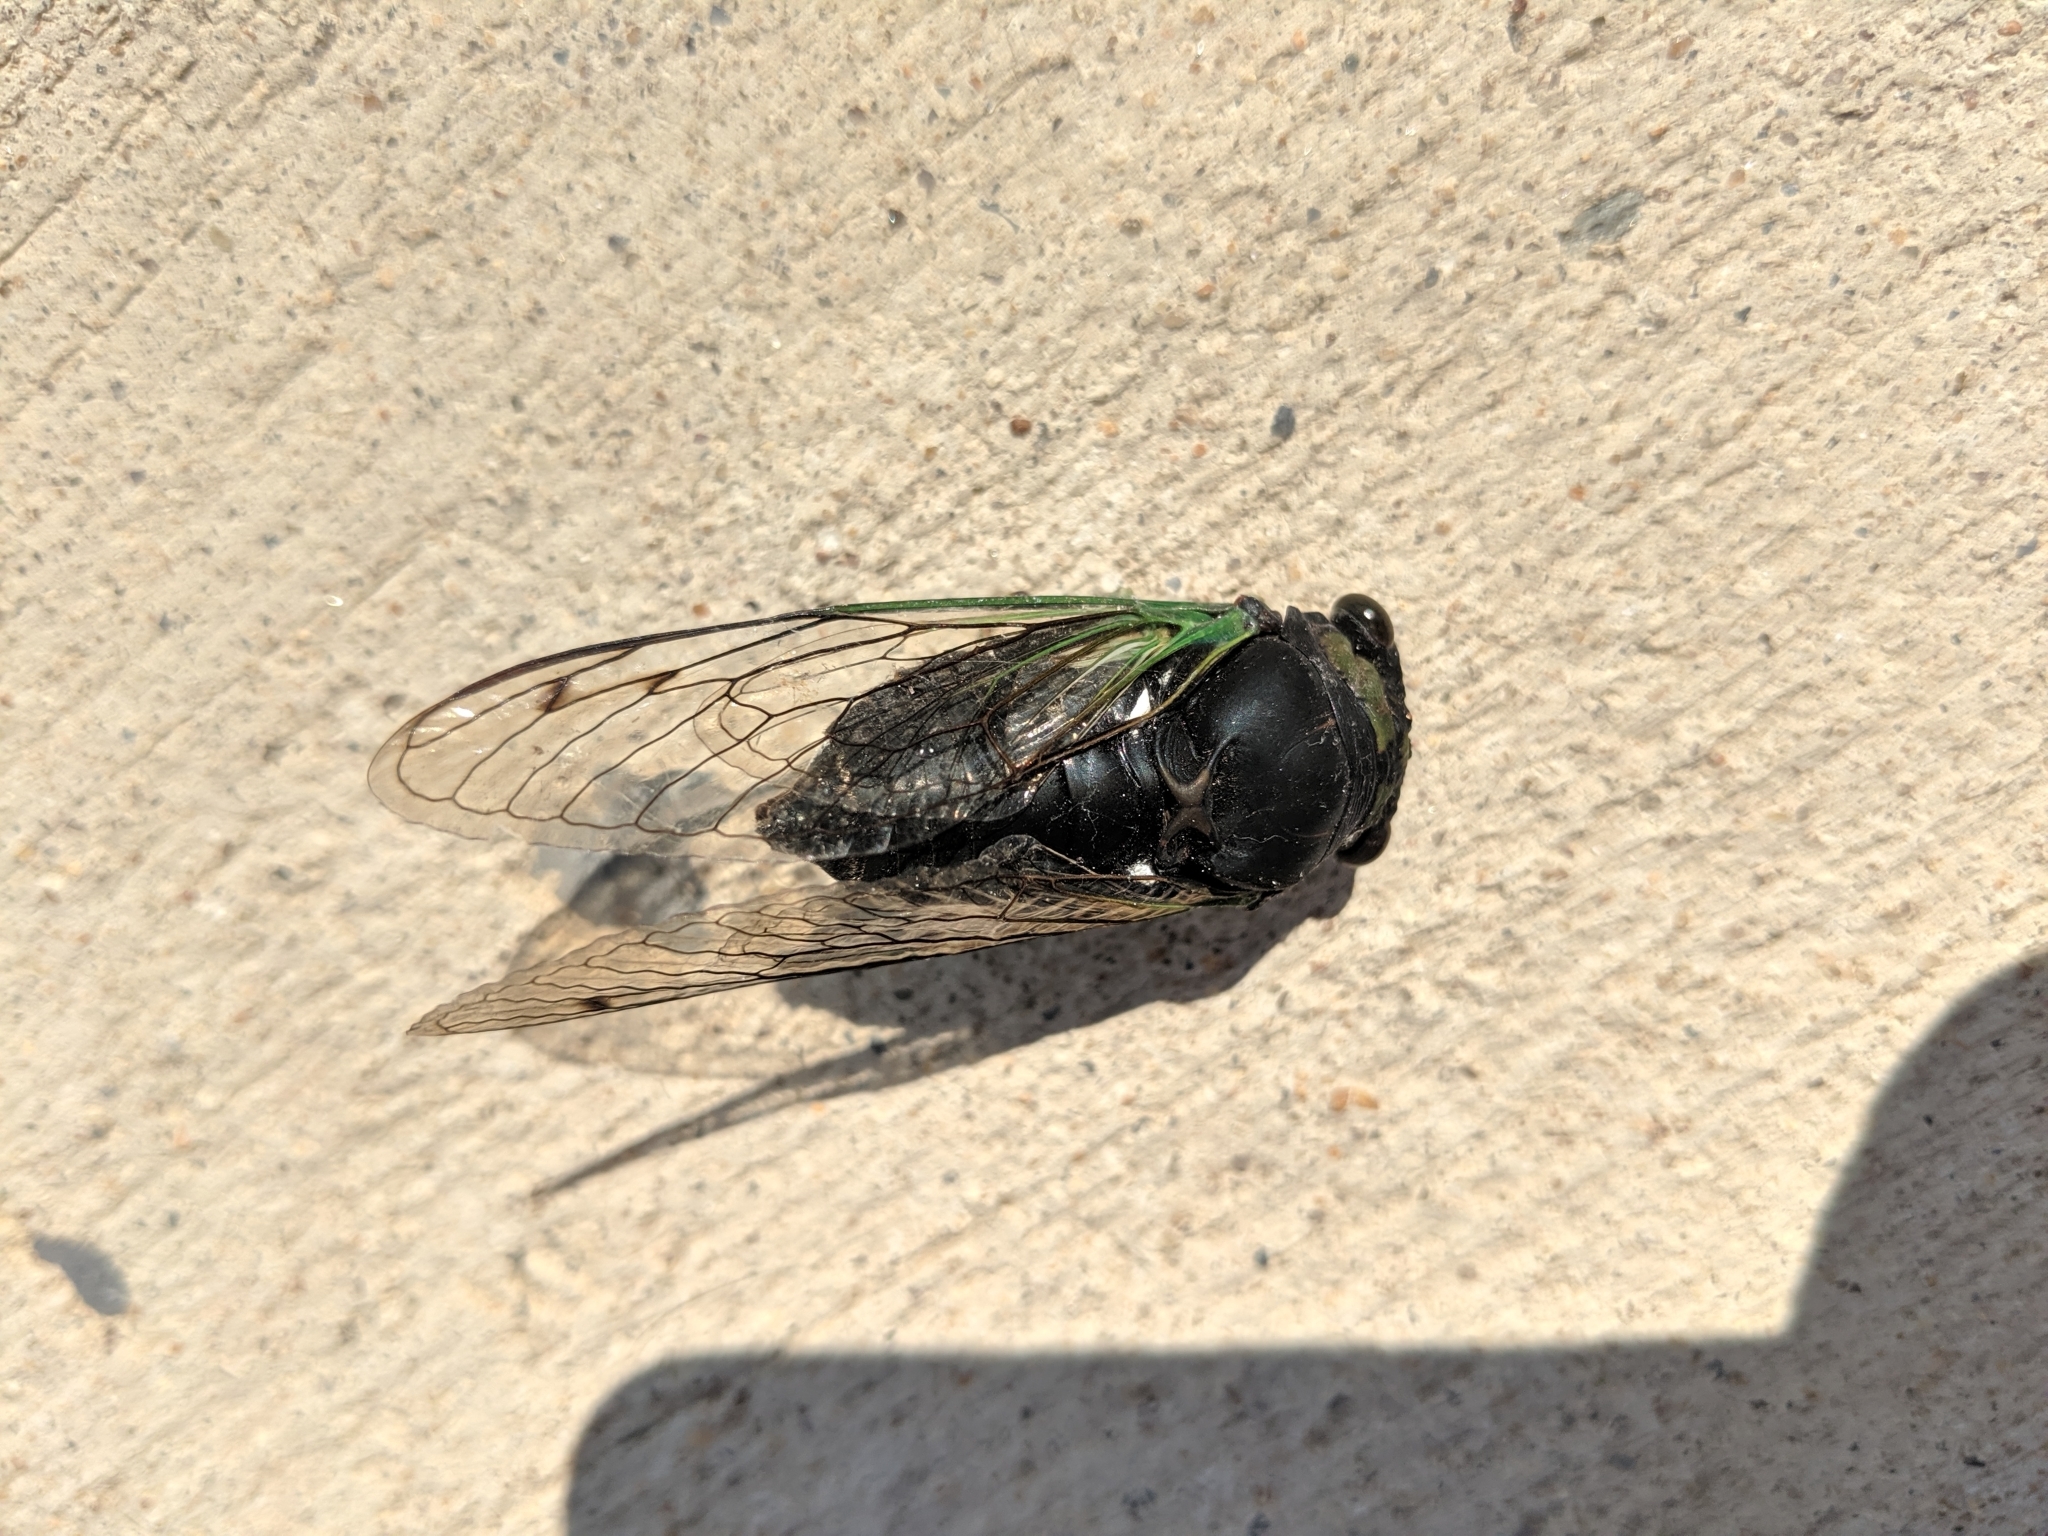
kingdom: Animalia
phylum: Arthropoda
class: Insecta
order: Hemiptera
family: Cicadidae
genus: Neotibicen
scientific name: Neotibicen tibicen
